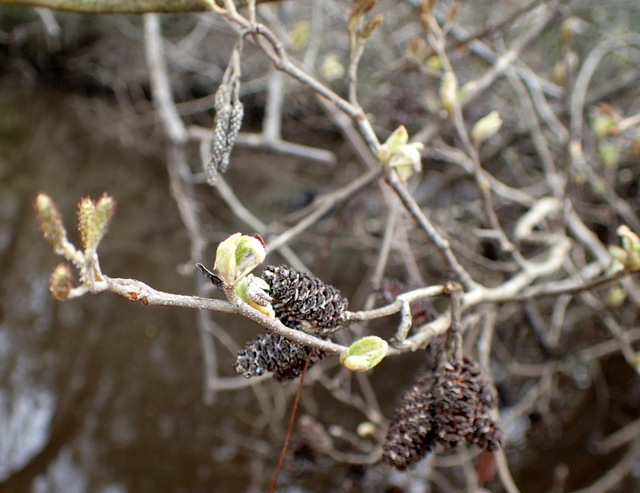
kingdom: Plantae
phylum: Tracheophyta
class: Magnoliopsida
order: Fagales
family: Betulaceae
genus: Alnus
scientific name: Alnus serrulata
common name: Hazel alder
